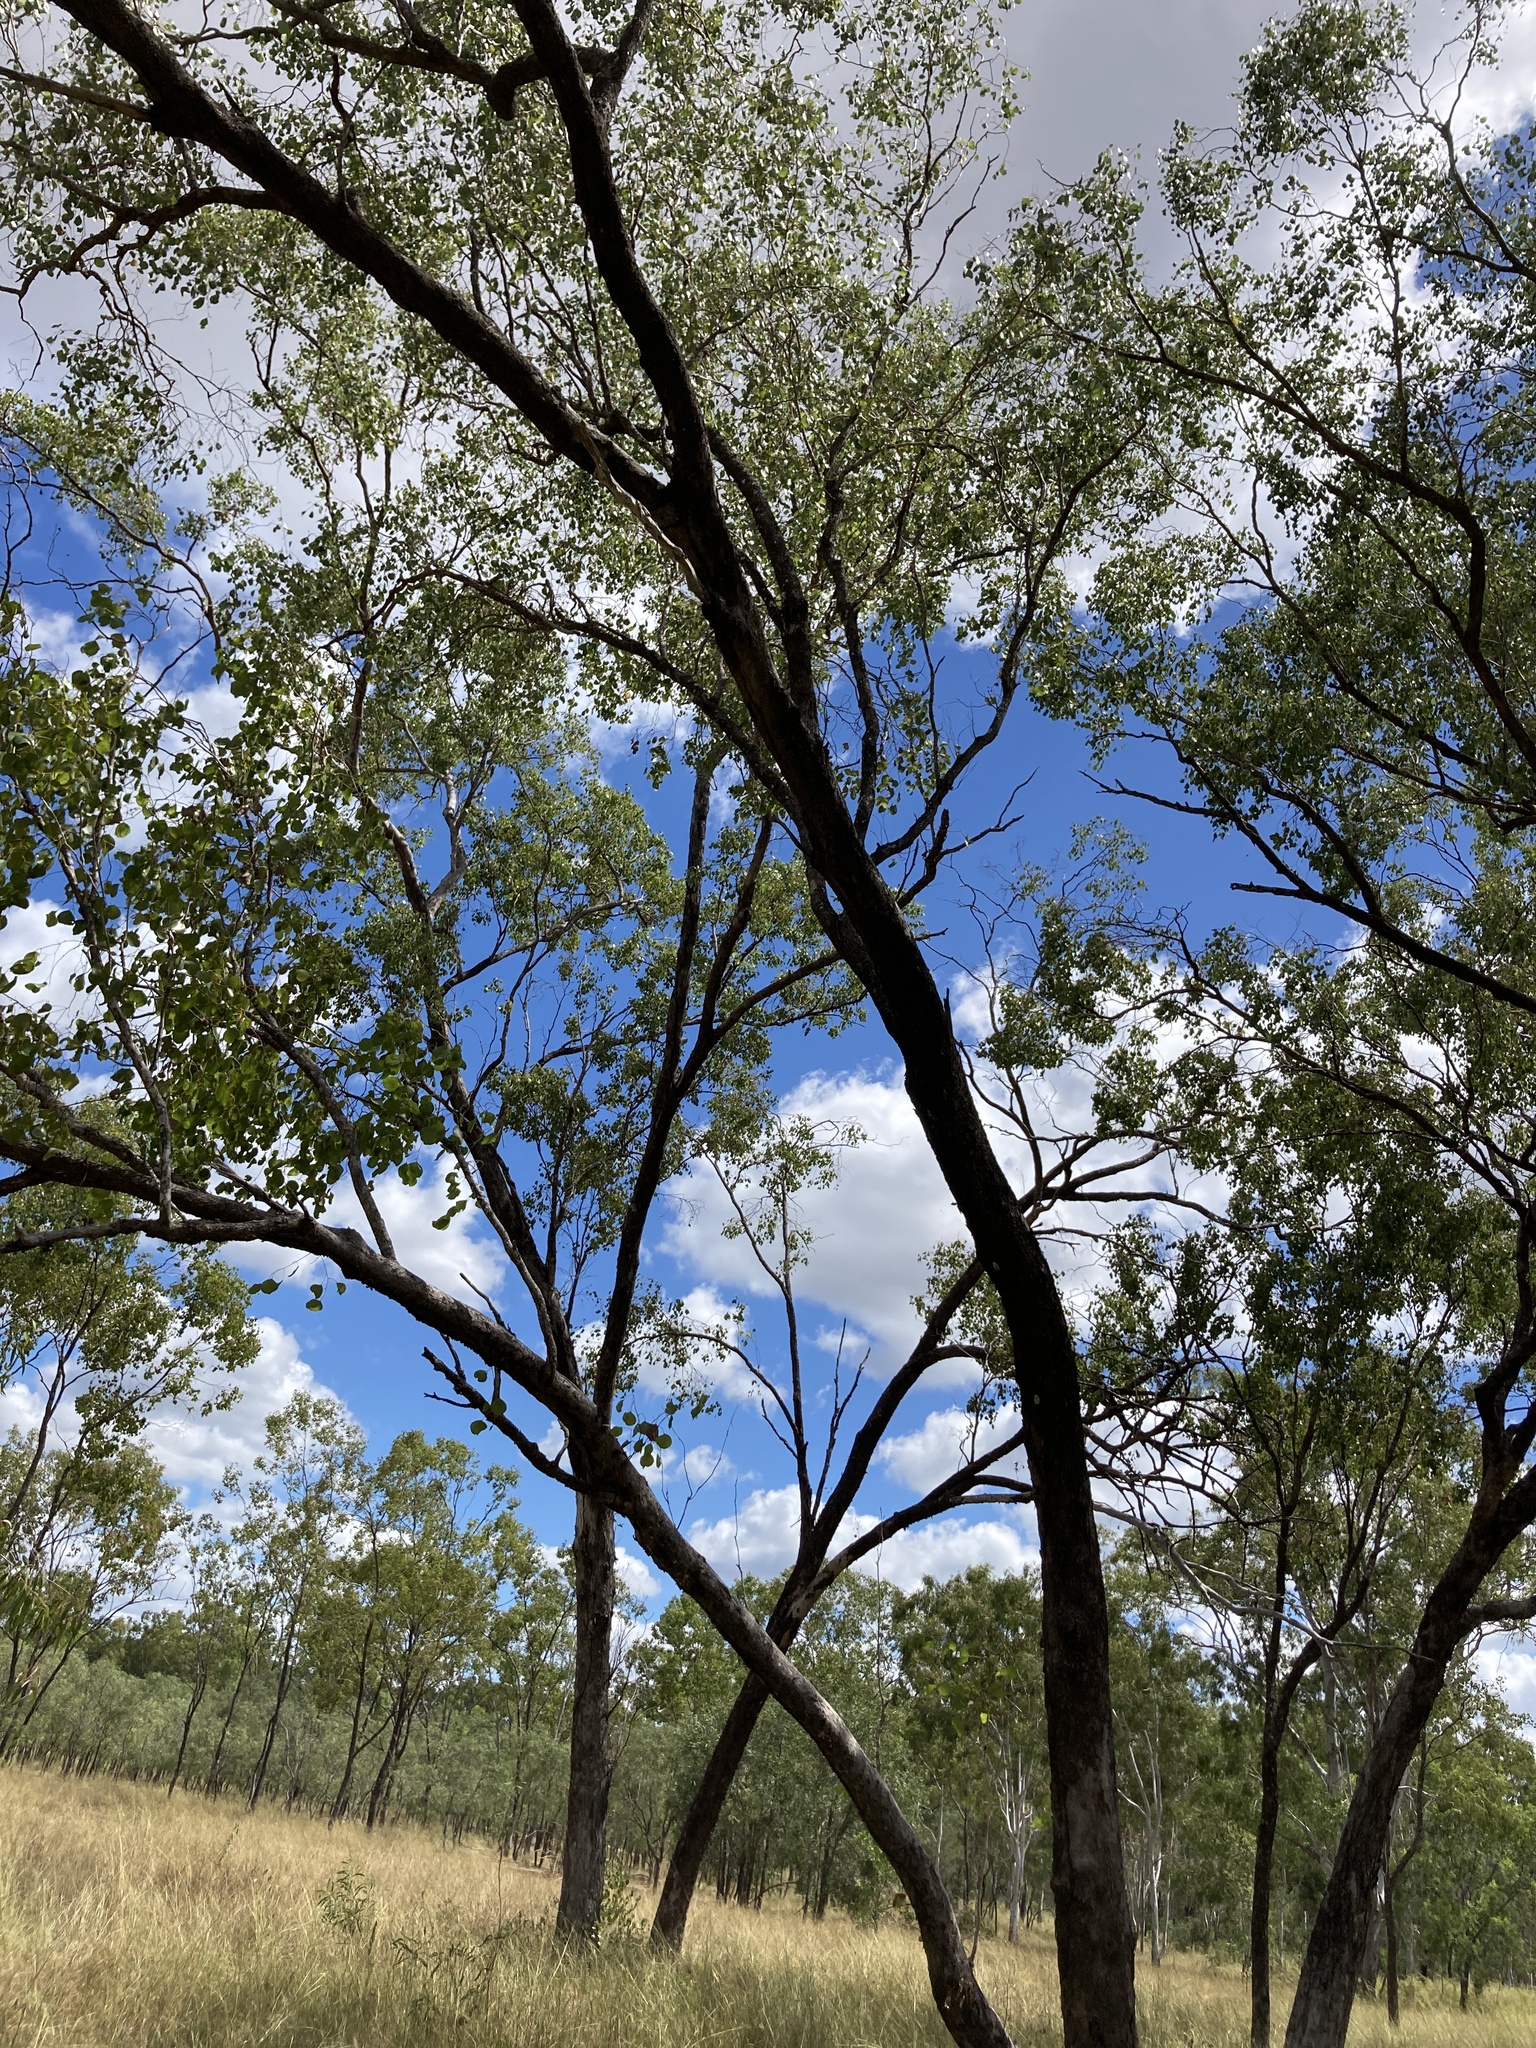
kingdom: Plantae
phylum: Tracheophyta
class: Magnoliopsida
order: Myrtales
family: Myrtaceae
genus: Eucalyptus
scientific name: Eucalyptus populnea
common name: Bimble box
